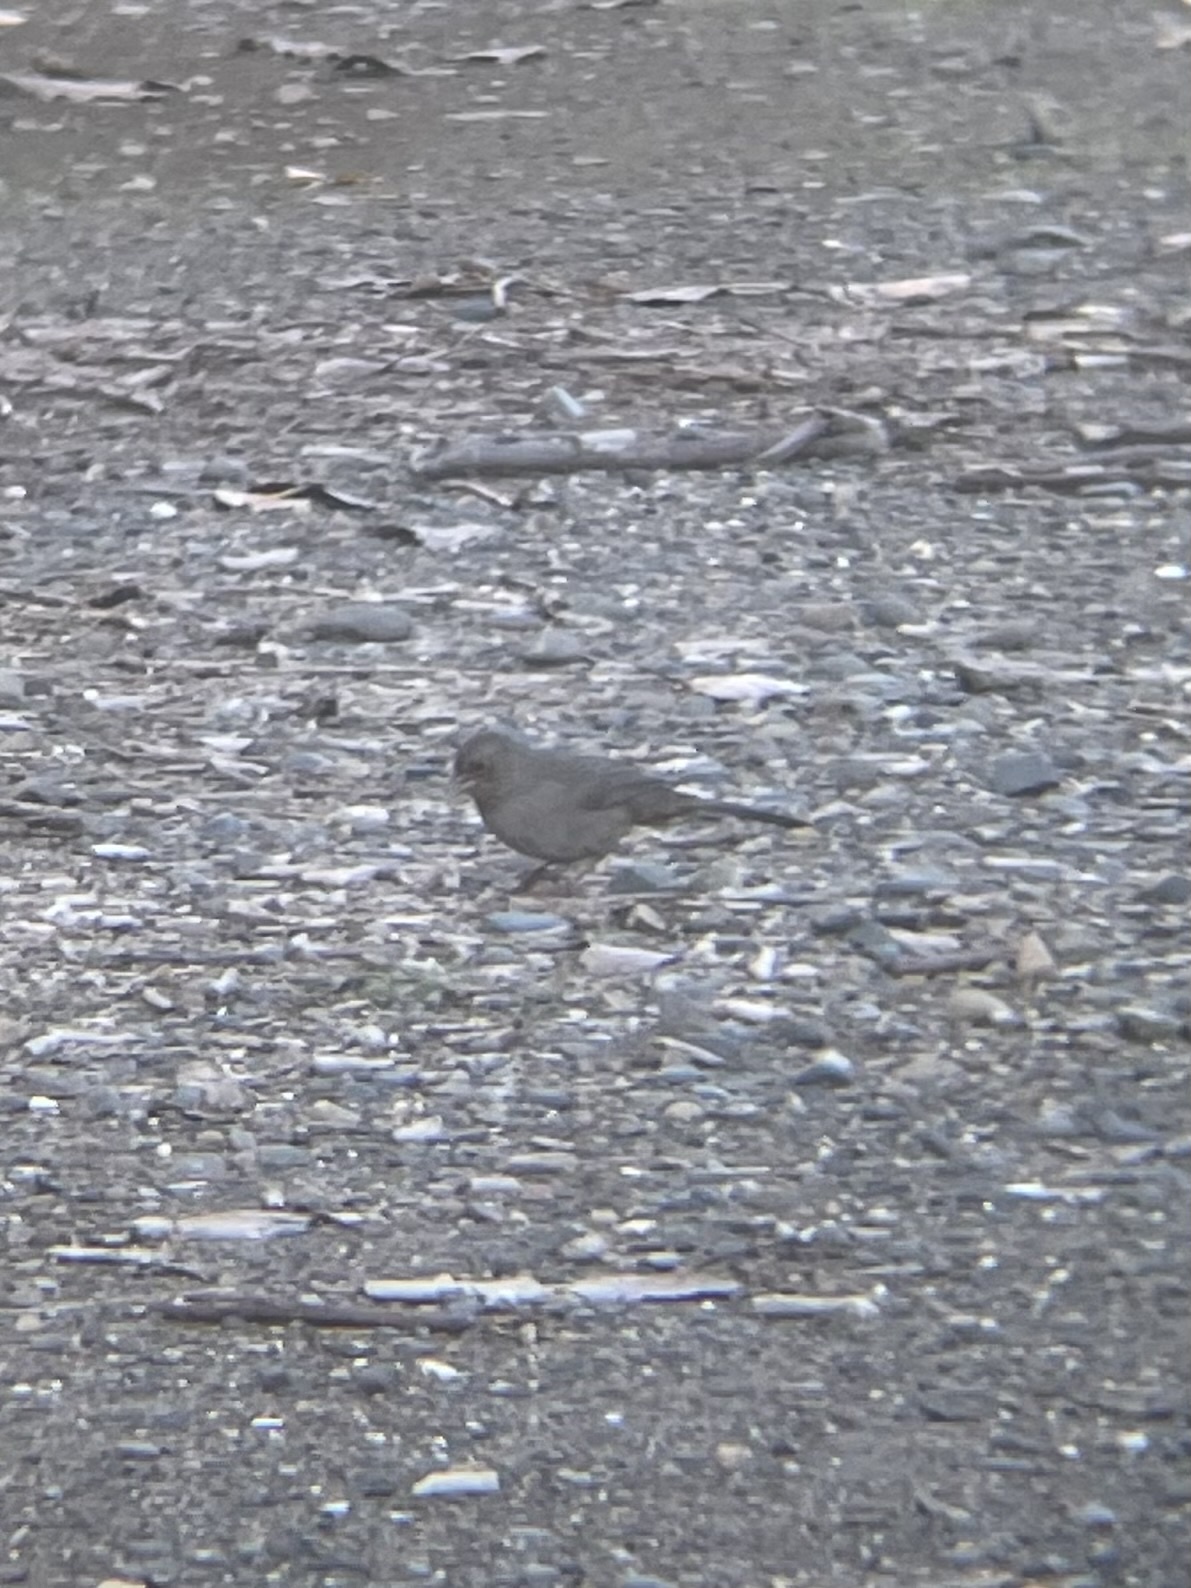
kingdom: Animalia
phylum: Chordata
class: Aves
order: Passeriformes
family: Passerellidae
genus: Melozone
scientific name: Melozone crissalis
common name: California towhee
